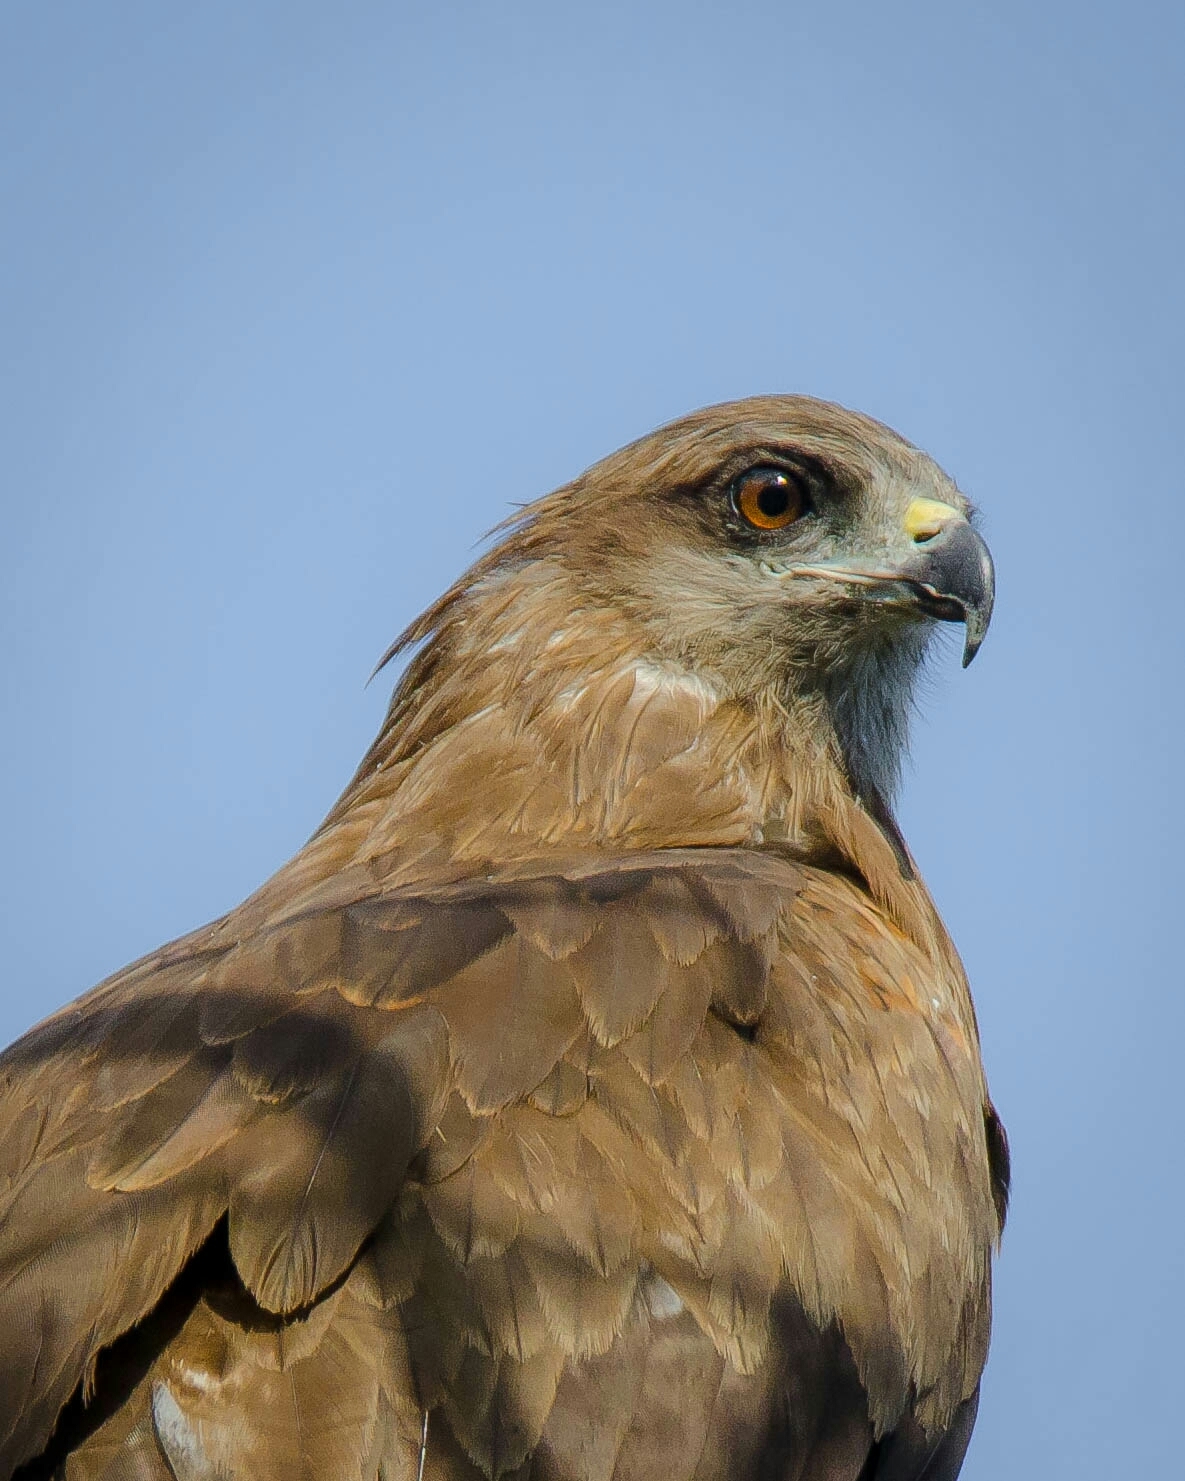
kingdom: Animalia
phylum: Chordata
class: Aves
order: Accipitriformes
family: Accipitridae
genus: Milvus
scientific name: Milvus migrans
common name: Black kite
